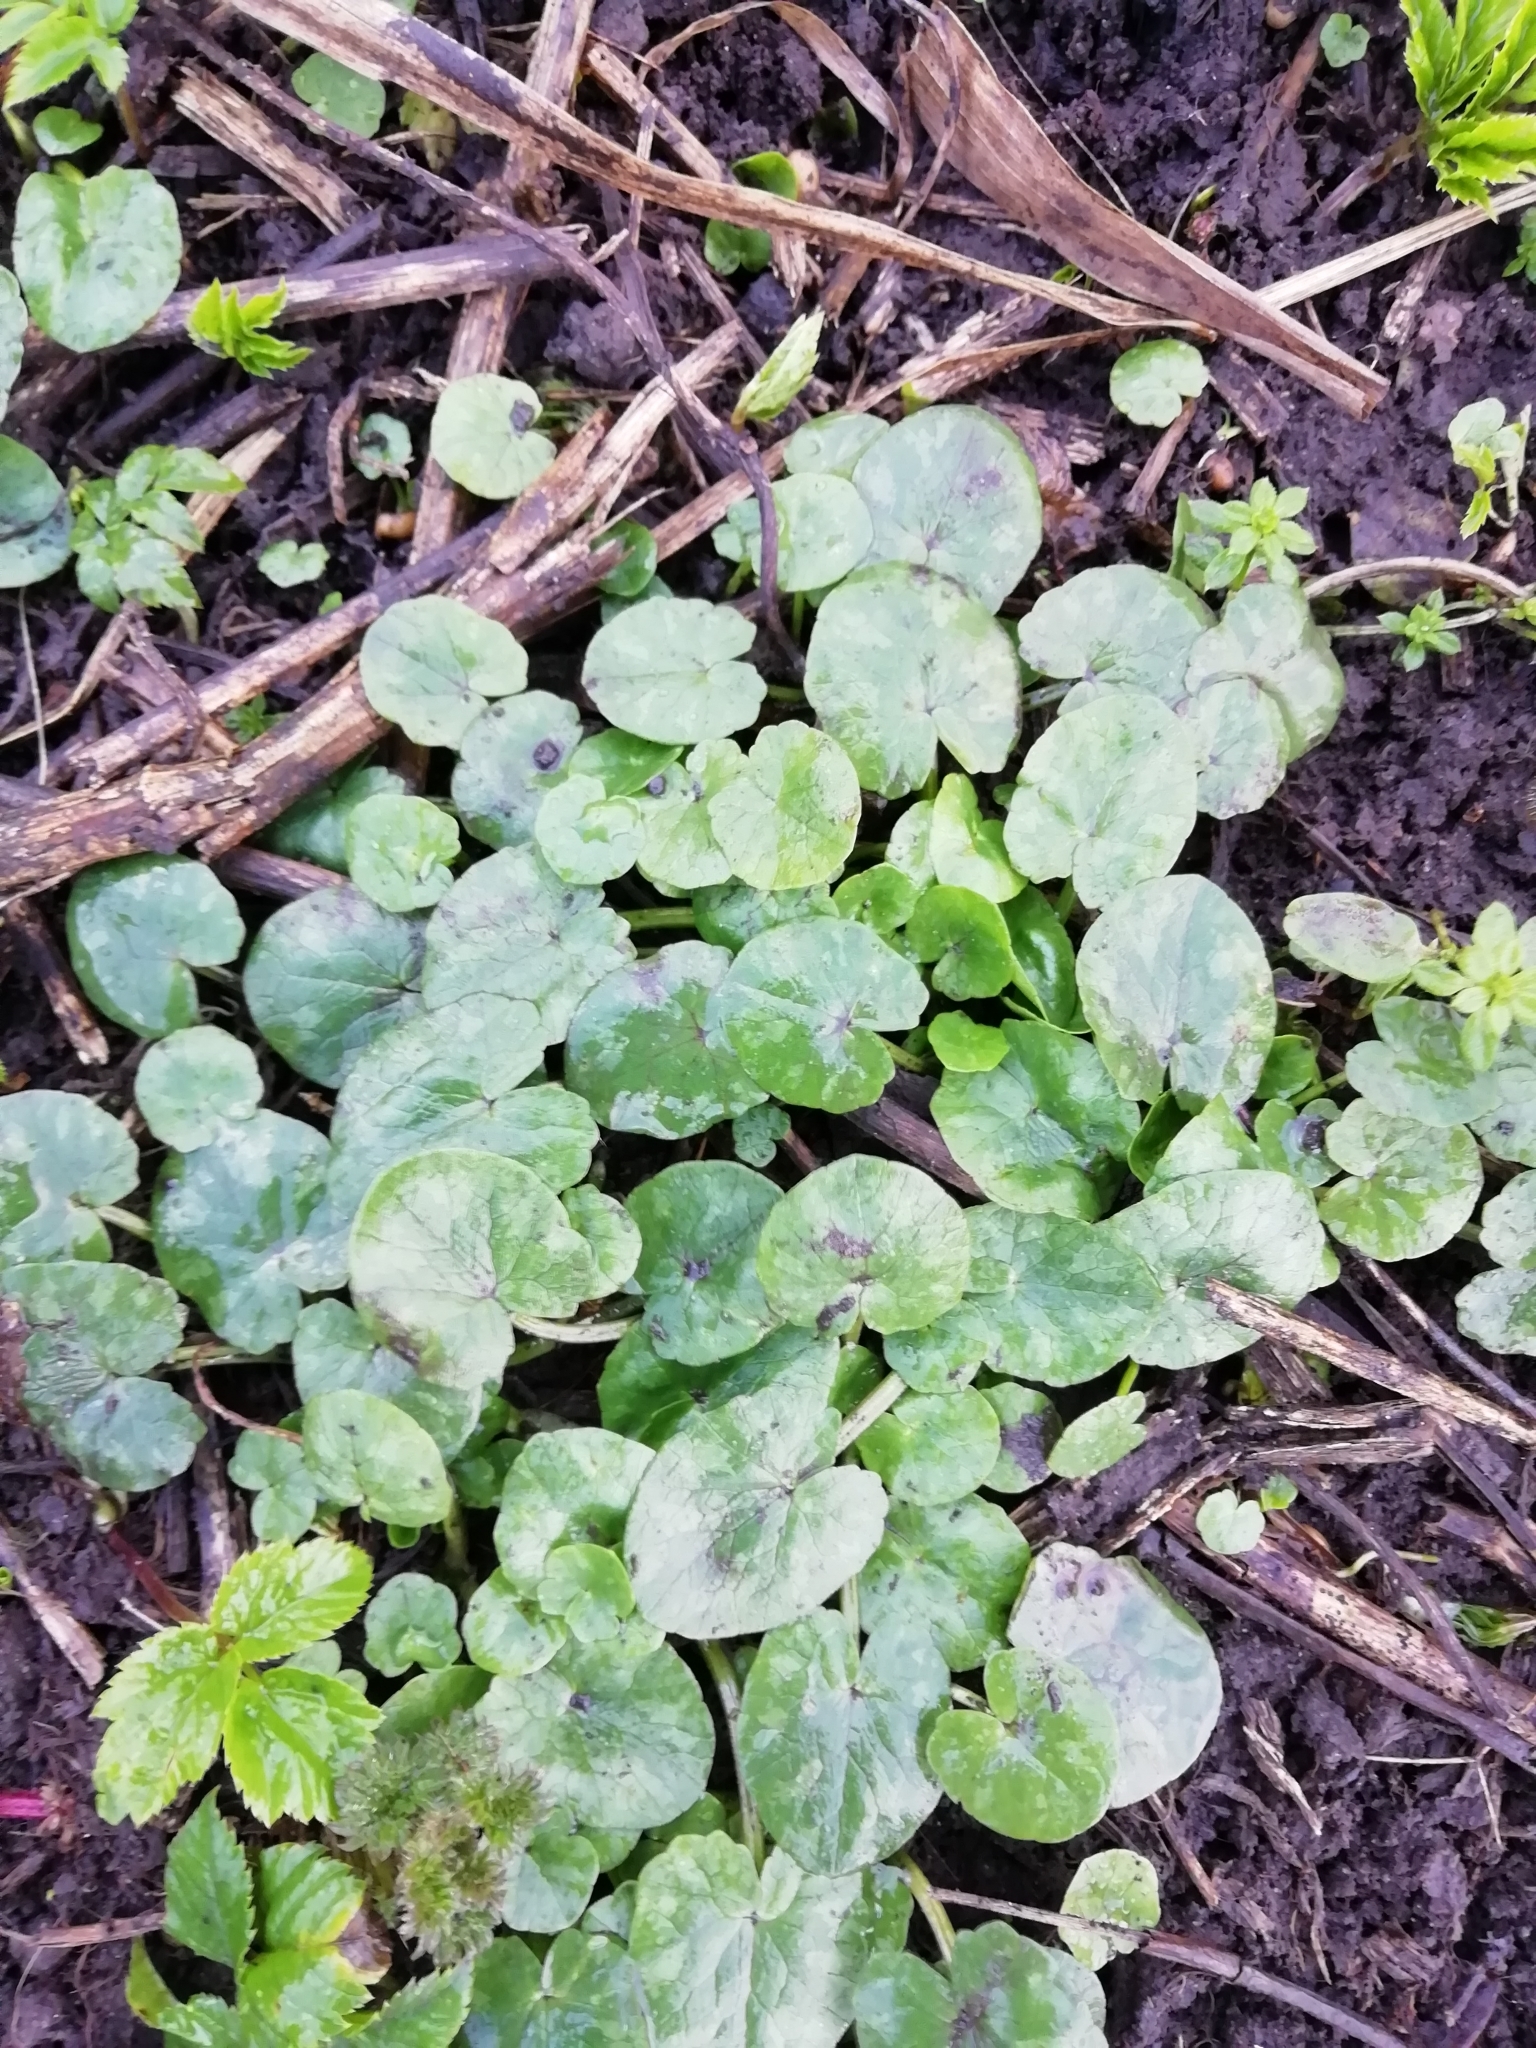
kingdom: Plantae
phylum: Tracheophyta
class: Magnoliopsida
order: Ranunculales
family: Ranunculaceae
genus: Ficaria
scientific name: Ficaria verna
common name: Lesser celandine
